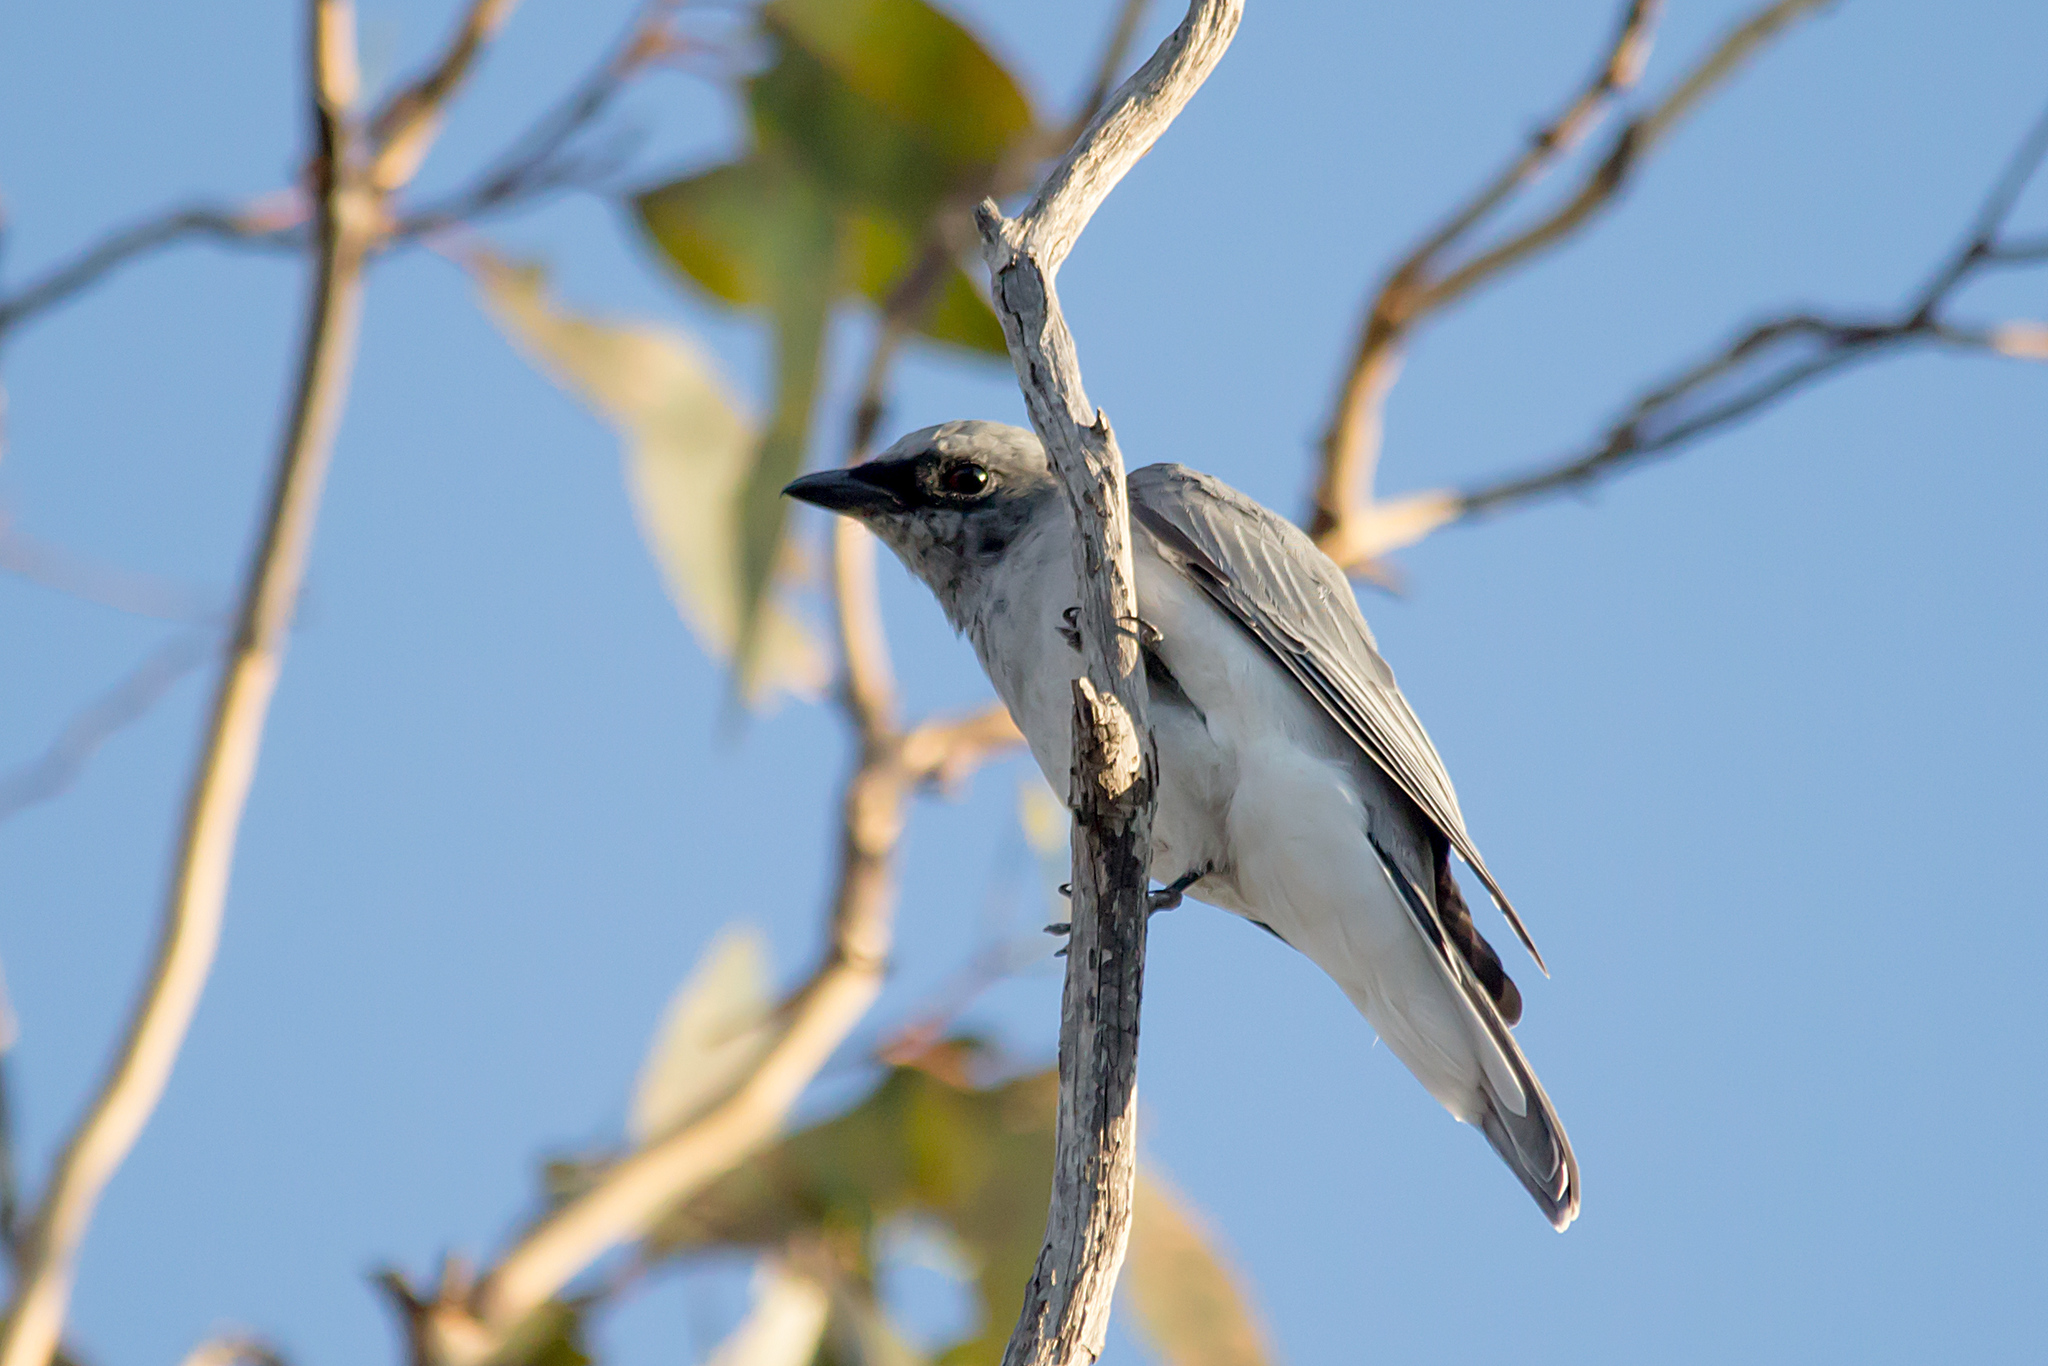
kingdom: Animalia
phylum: Chordata
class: Aves
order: Passeriformes
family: Campephagidae
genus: Coracina
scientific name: Coracina papuensis
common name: White-bellied cuckooshrike
